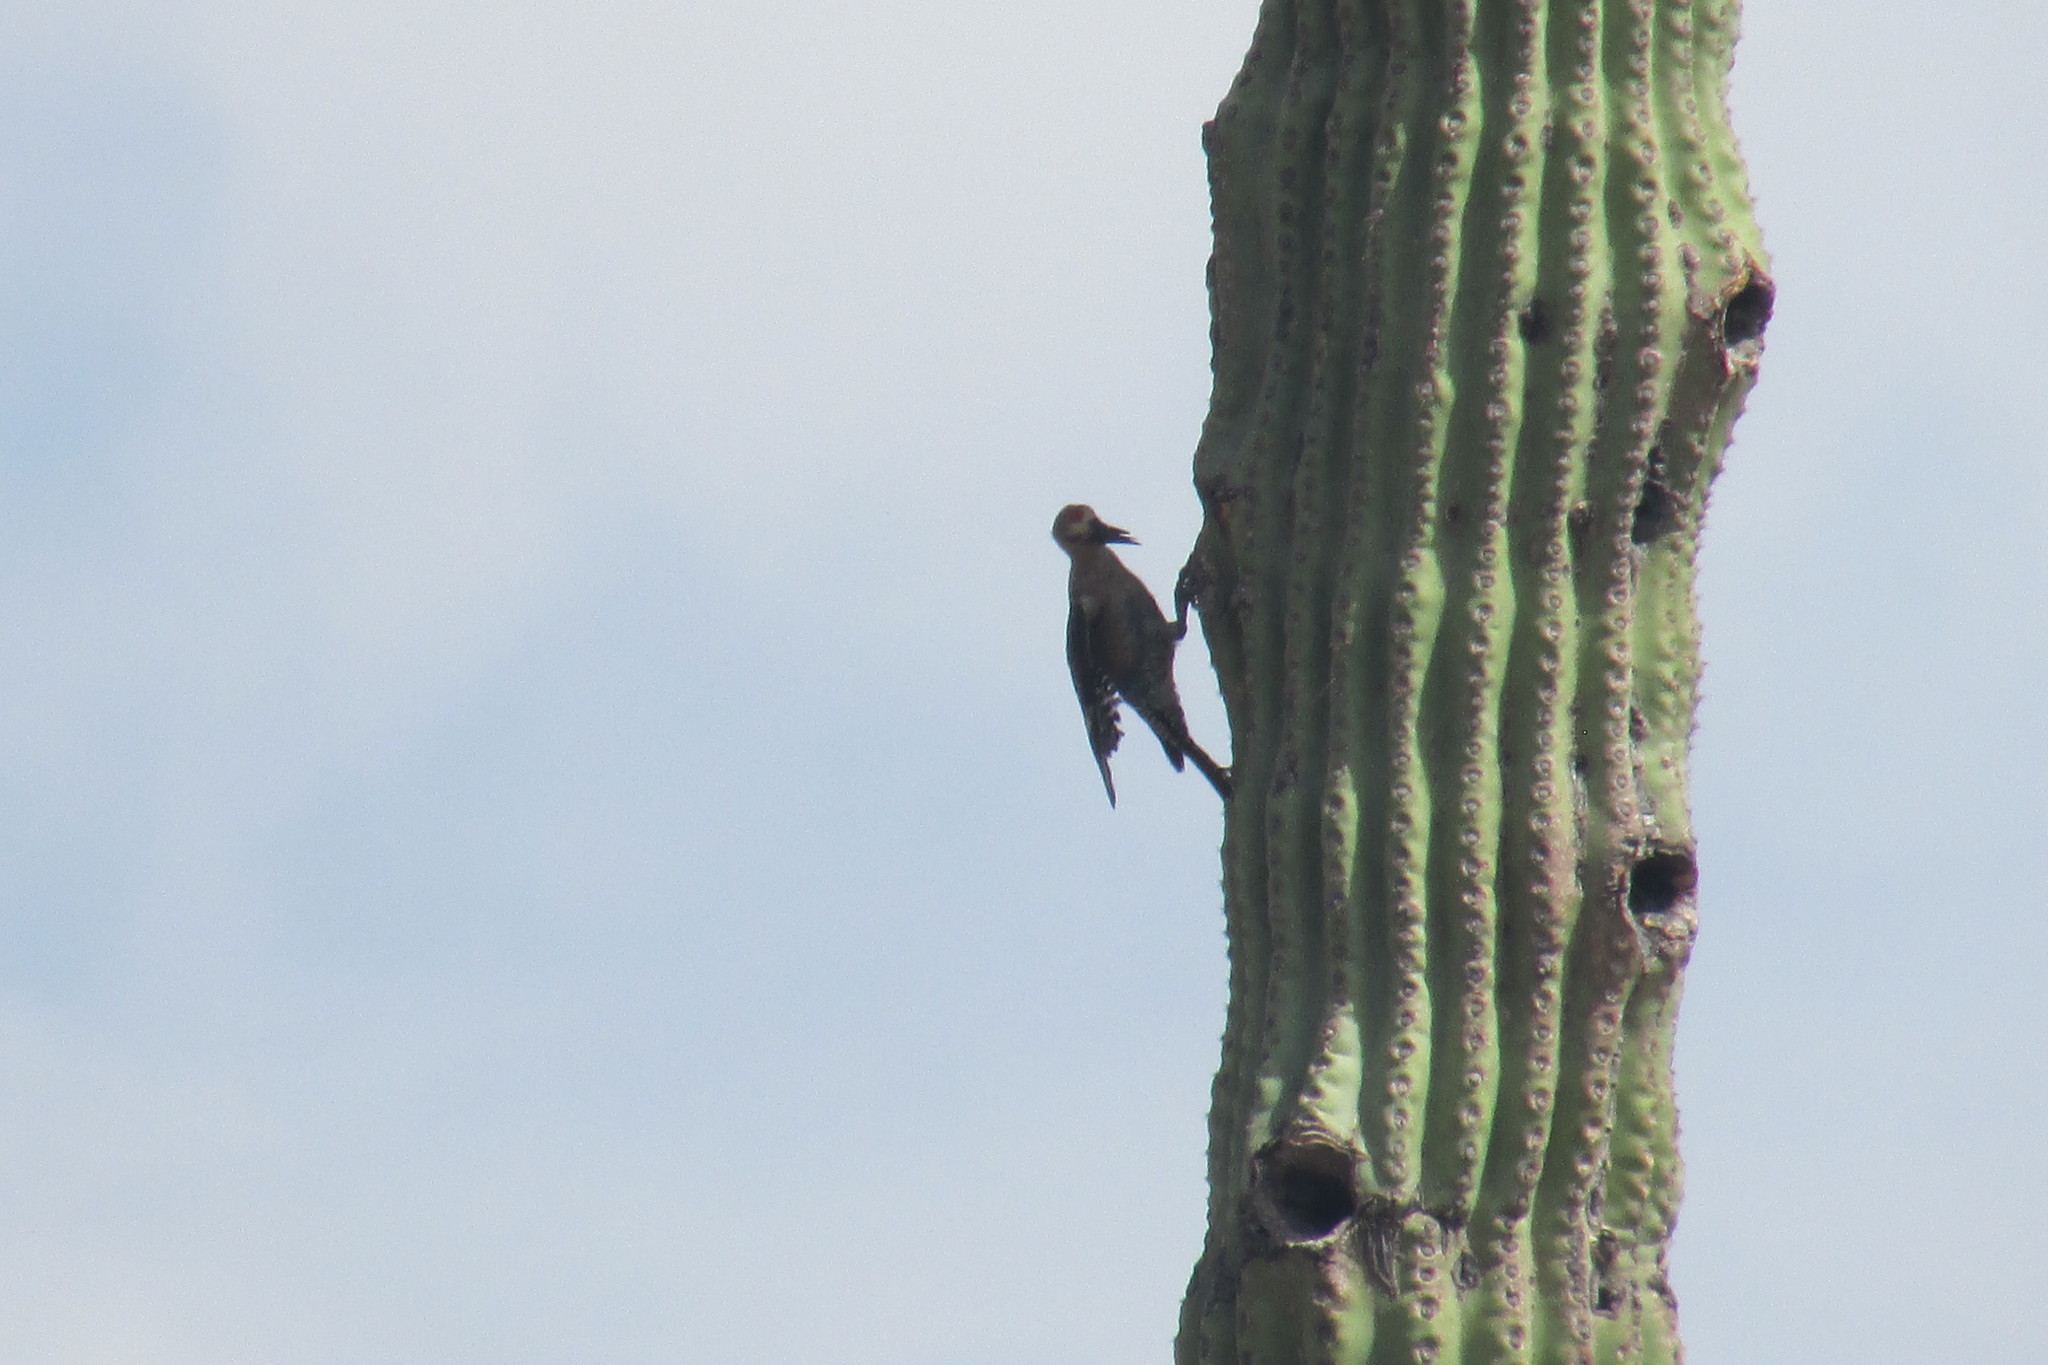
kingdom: Animalia
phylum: Chordata
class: Aves
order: Piciformes
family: Picidae
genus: Melanerpes
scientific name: Melanerpes uropygialis
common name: Gila woodpecker
